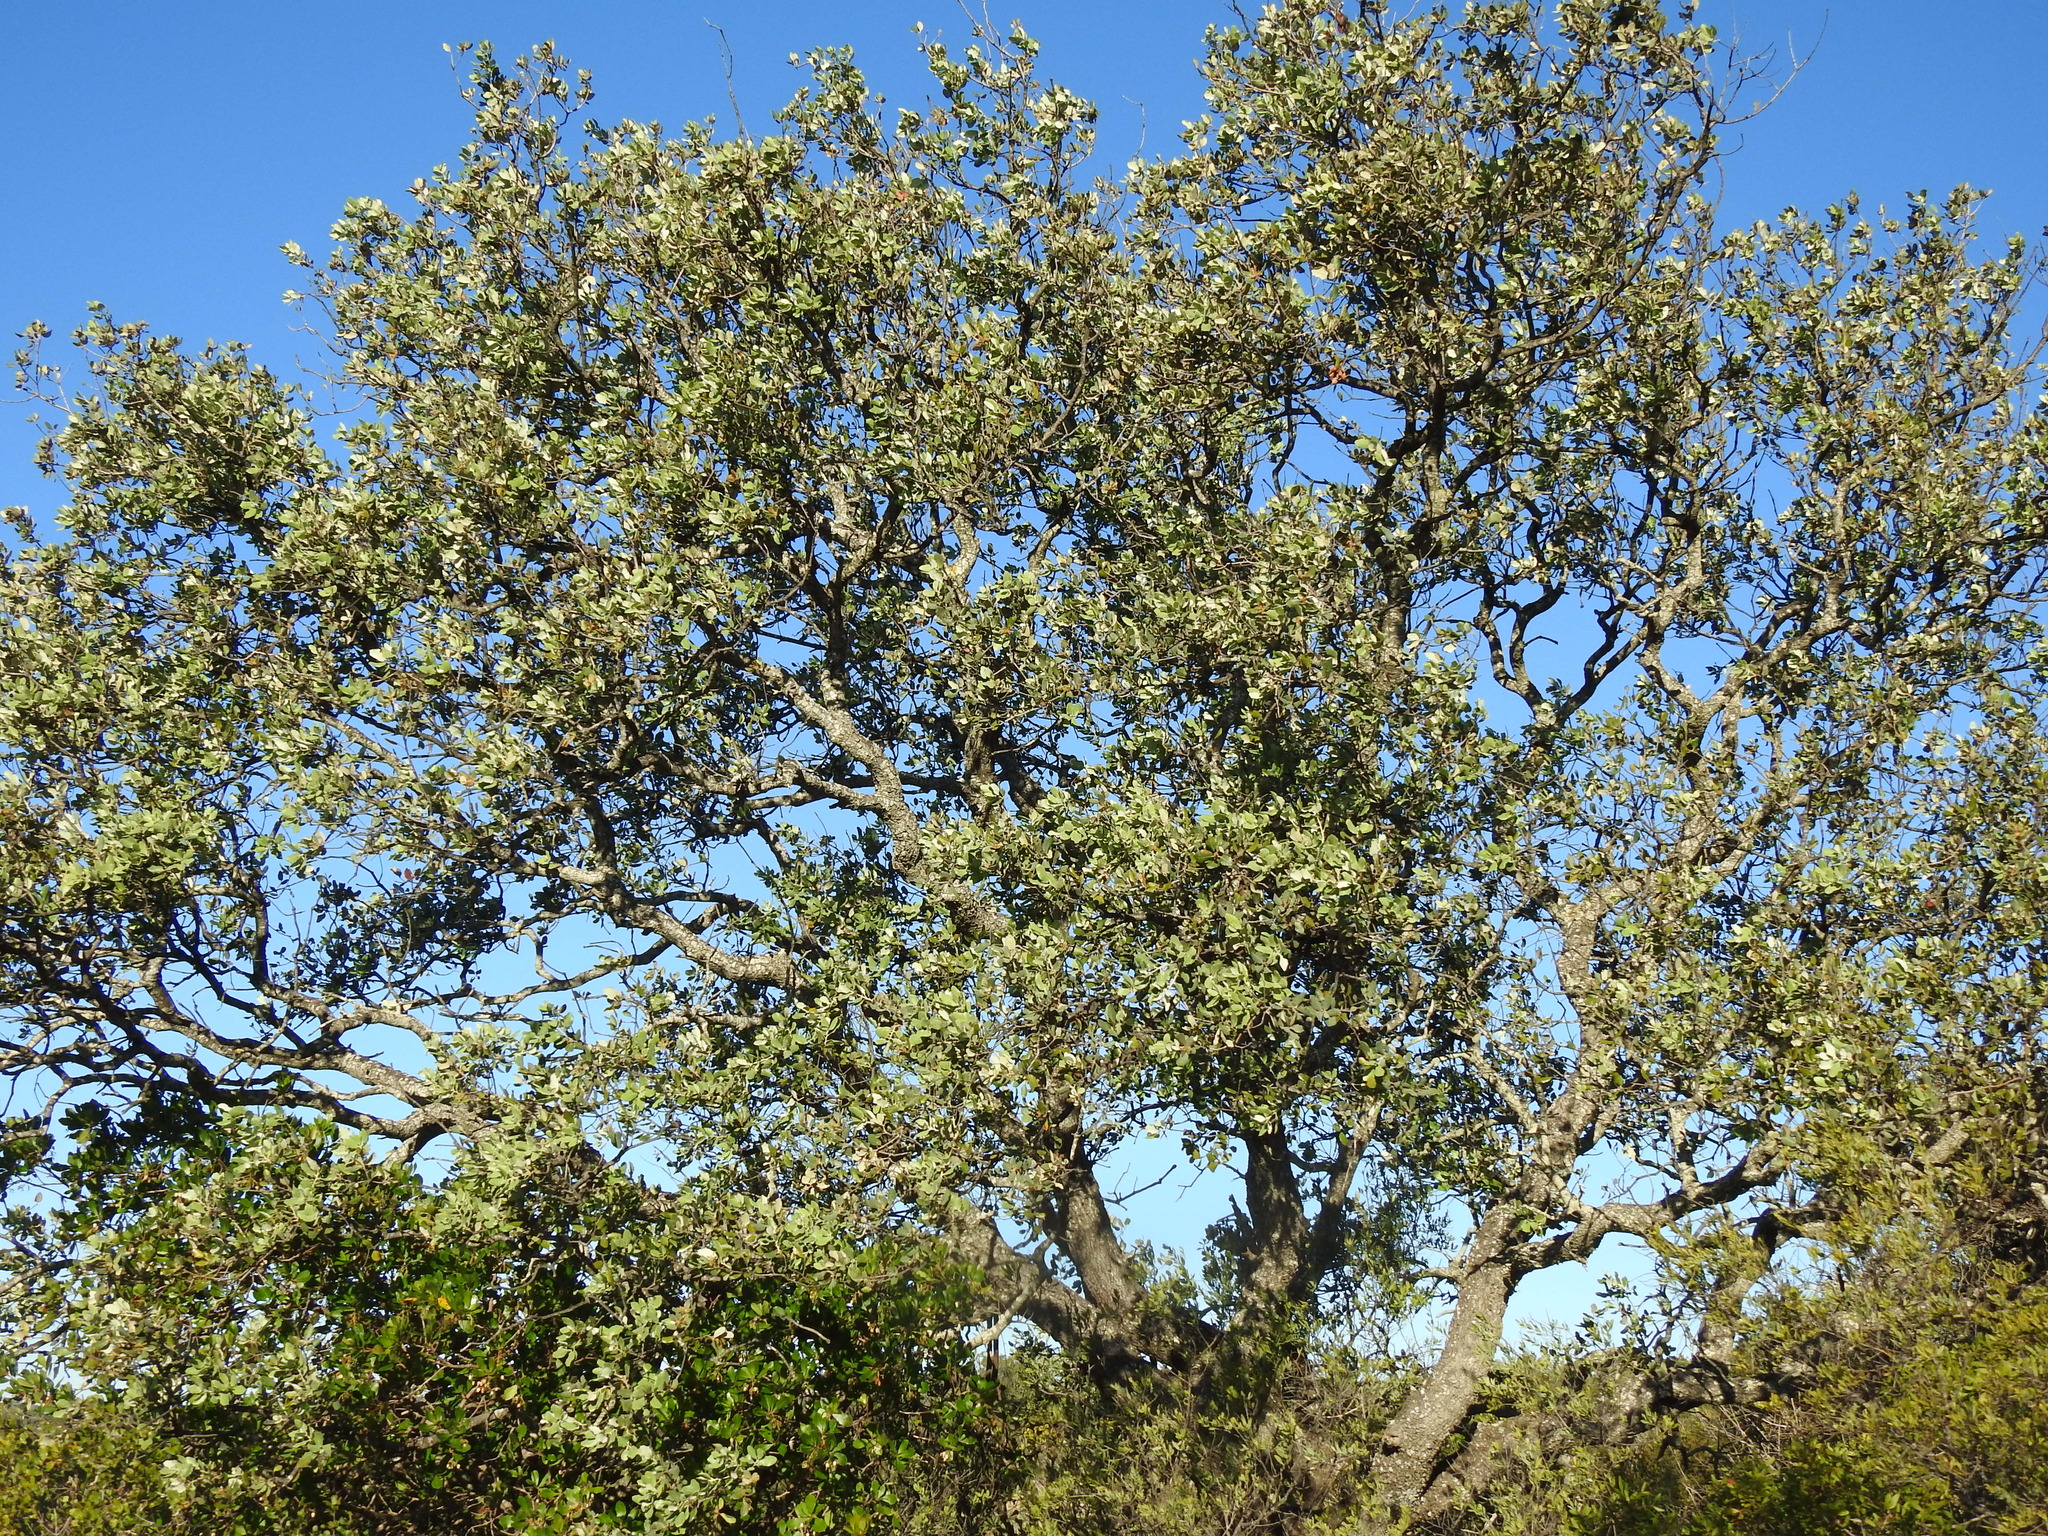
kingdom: Plantae
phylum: Tracheophyta
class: Magnoliopsida
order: Fagales
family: Fagaceae
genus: Quercus
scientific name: Quercus rotundifolia
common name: Holm oak
